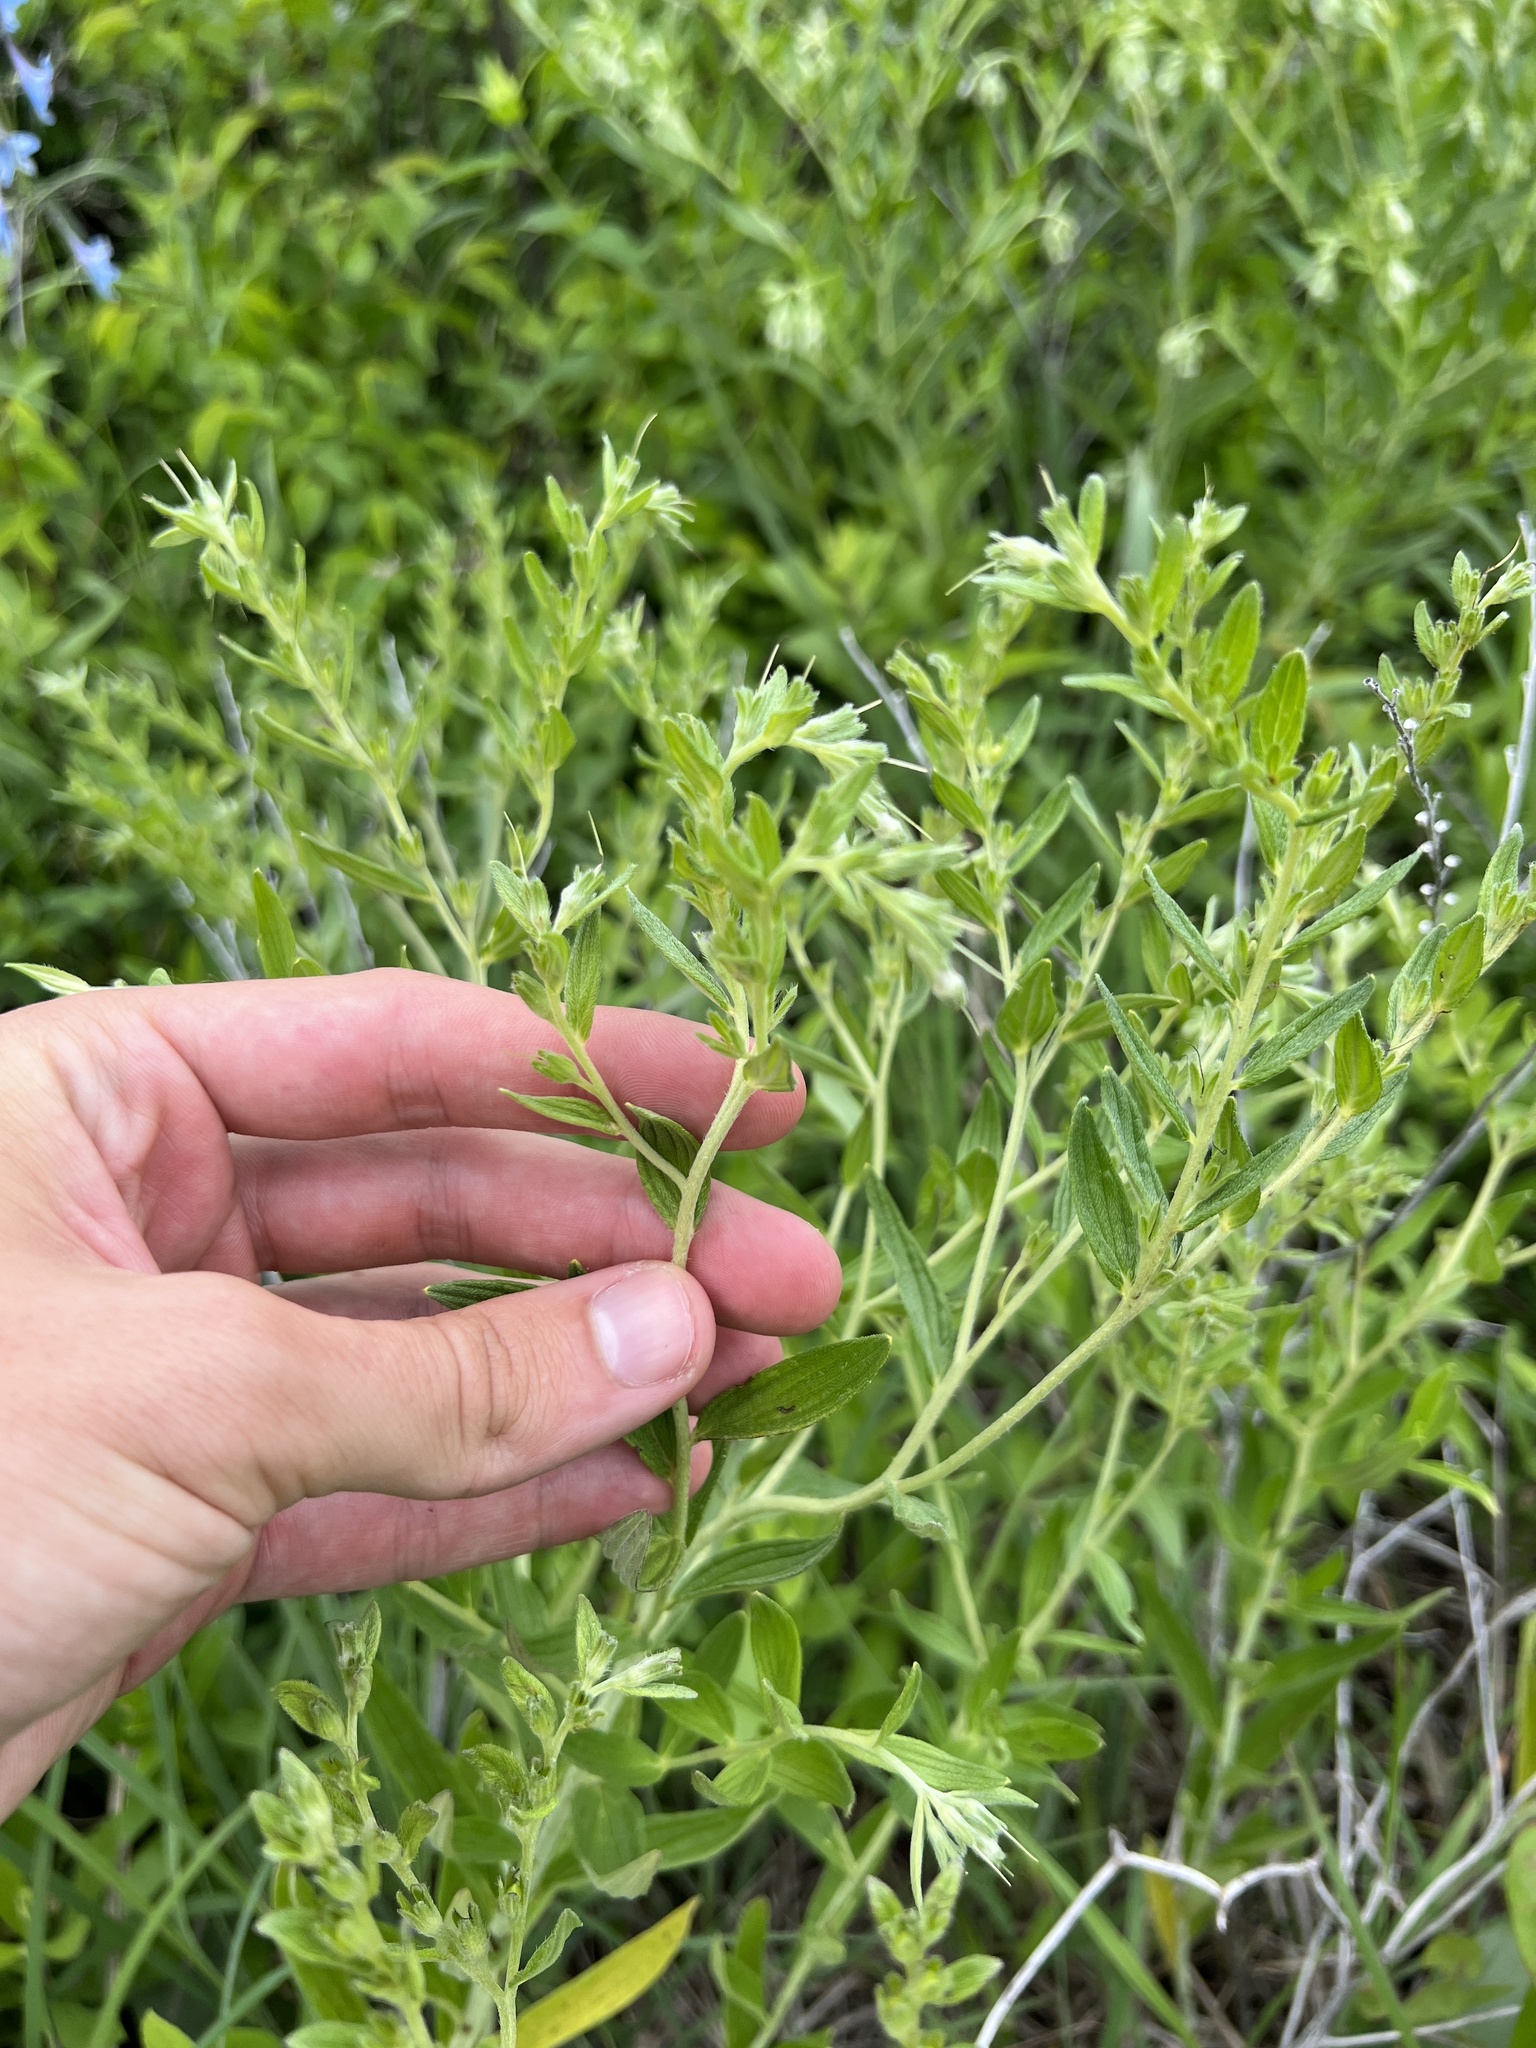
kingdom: Plantae
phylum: Tracheophyta
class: Magnoliopsida
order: Boraginales
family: Boraginaceae
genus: Lithospermum
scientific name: Lithospermum subsetosum
